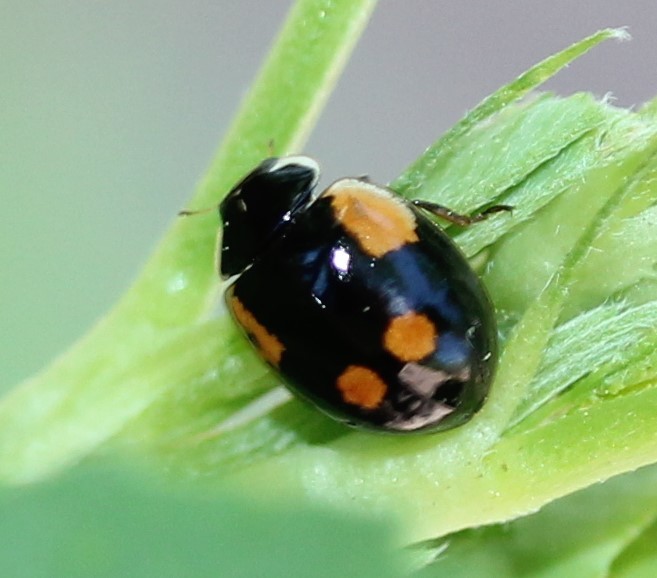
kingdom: Animalia
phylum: Arthropoda
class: Insecta
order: Coleoptera
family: Coccinellidae
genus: Adalia
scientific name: Adalia bipunctata
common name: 2-spot ladybird
